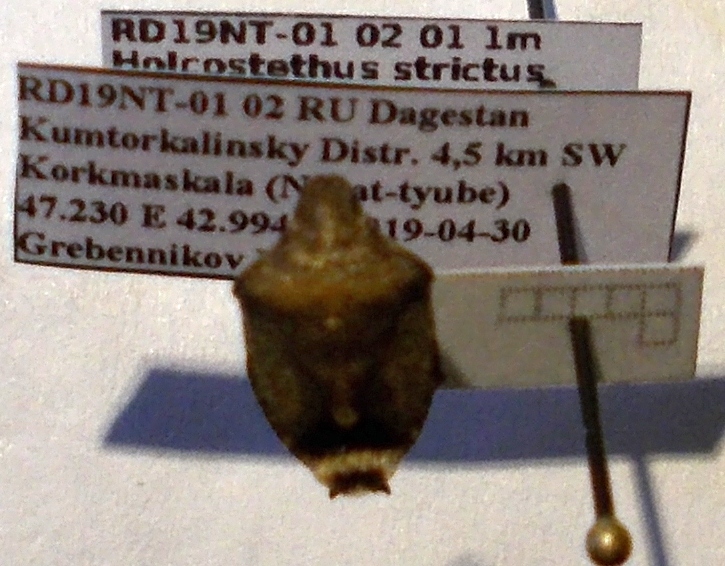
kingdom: Animalia
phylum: Arthropoda
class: Insecta
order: Hemiptera
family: Pentatomidae
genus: Holcostethus
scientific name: Holcostethus strictus
